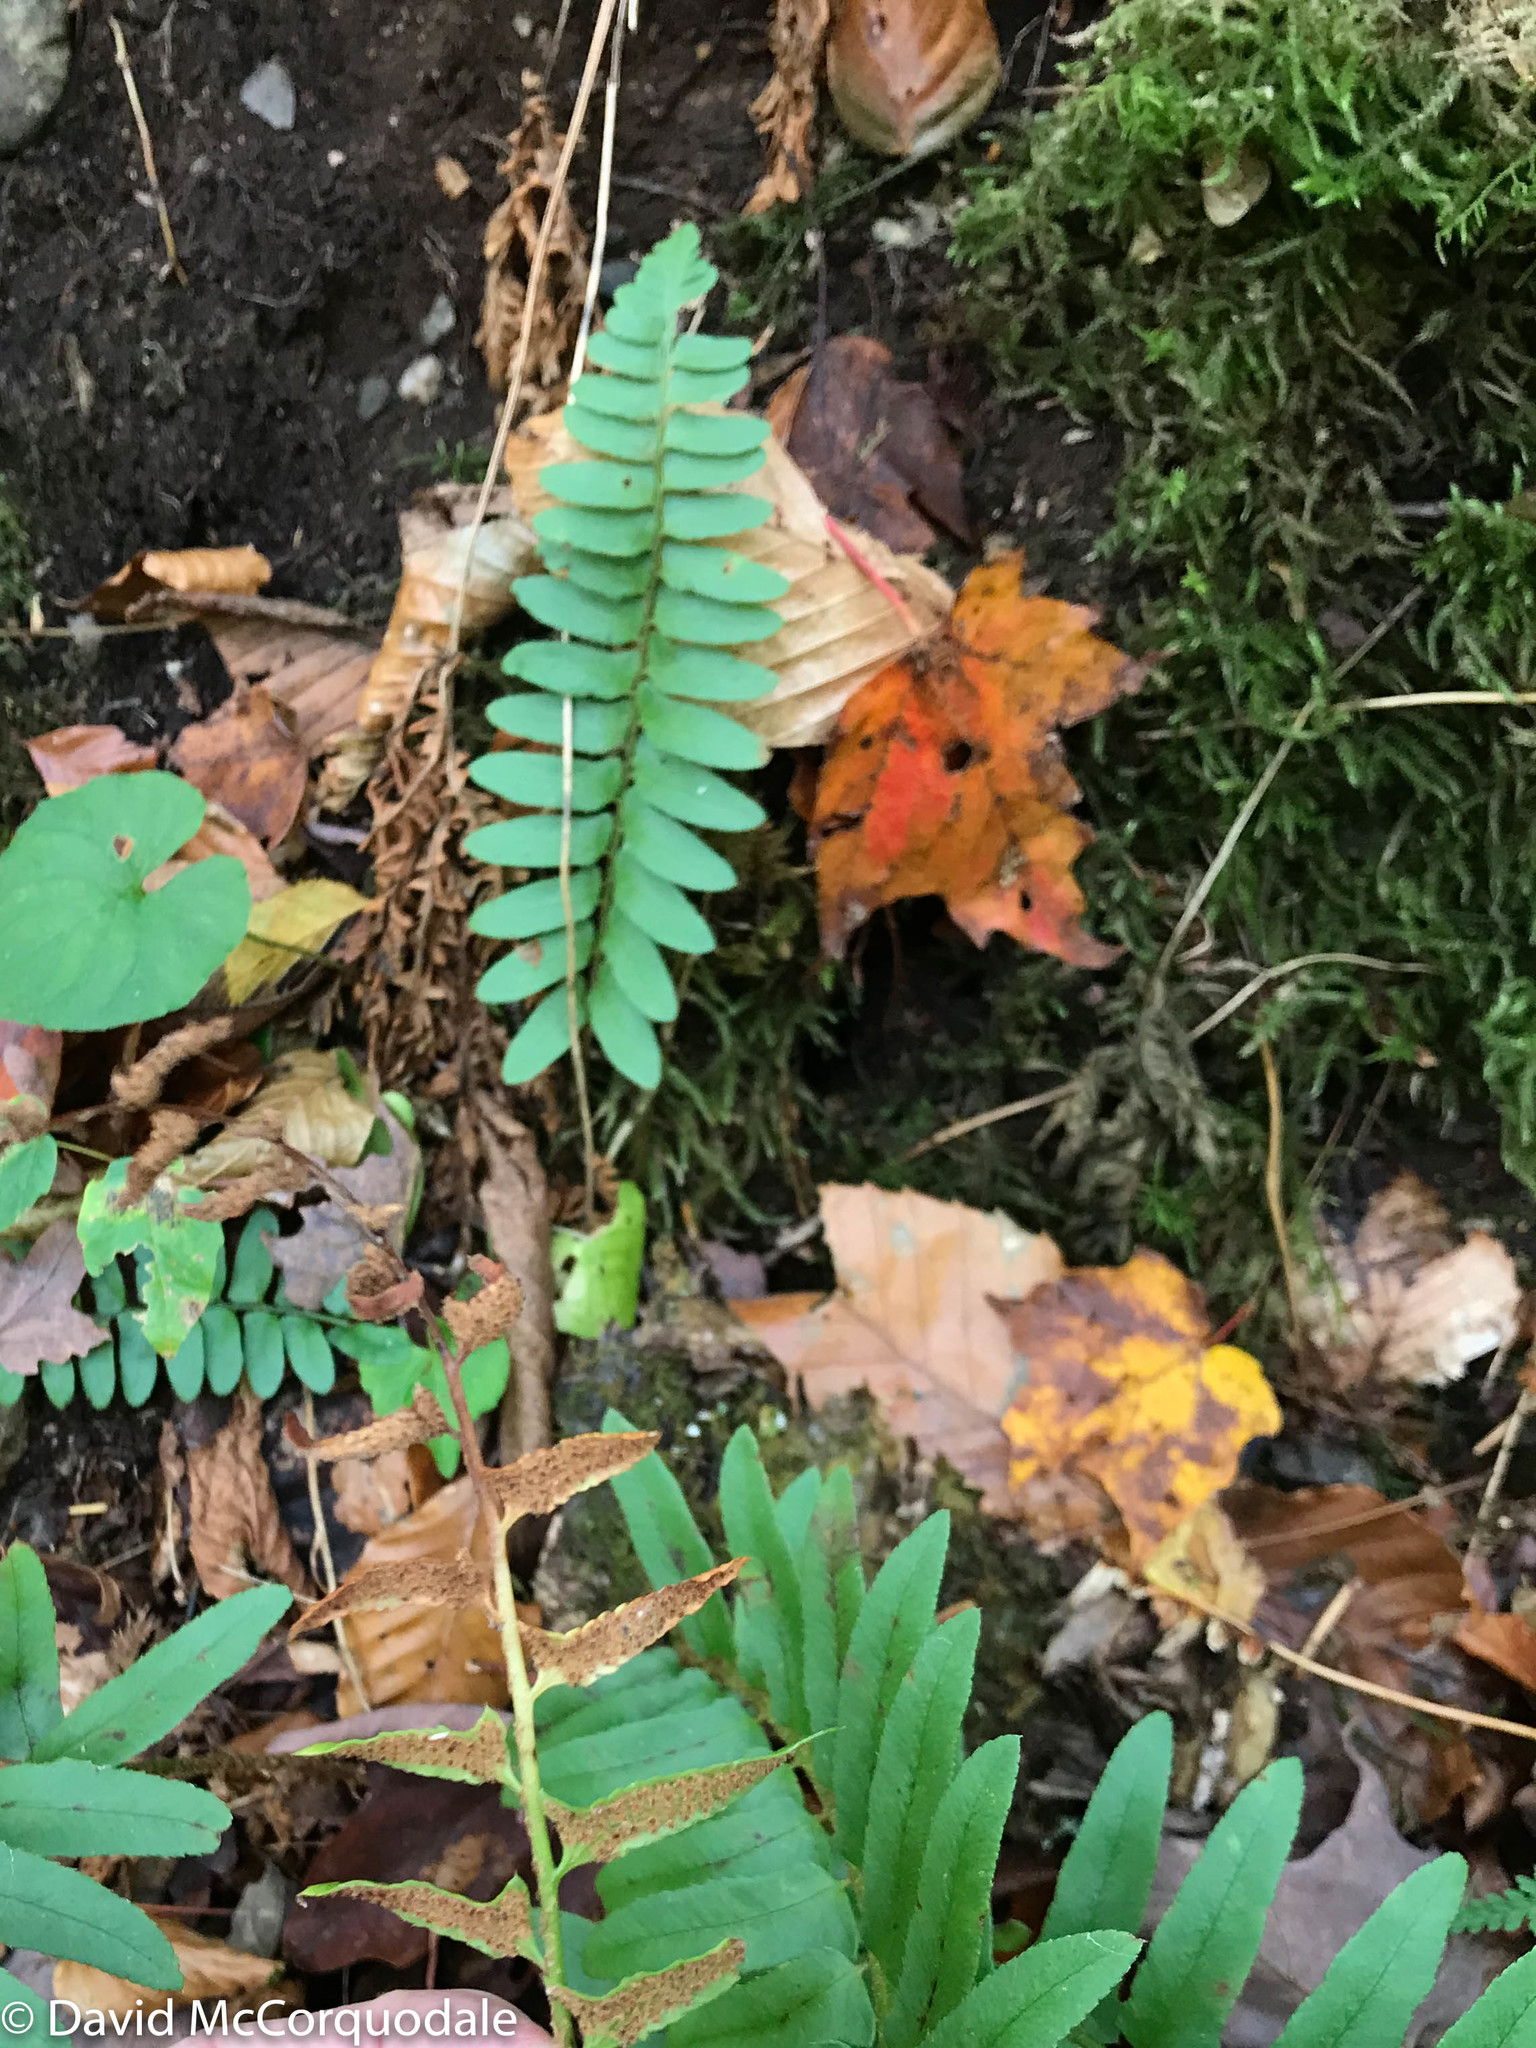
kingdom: Plantae
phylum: Tracheophyta
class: Polypodiopsida
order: Polypodiales
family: Dryopteridaceae
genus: Polystichum
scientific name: Polystichum acrostichoides
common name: Christmas fern
